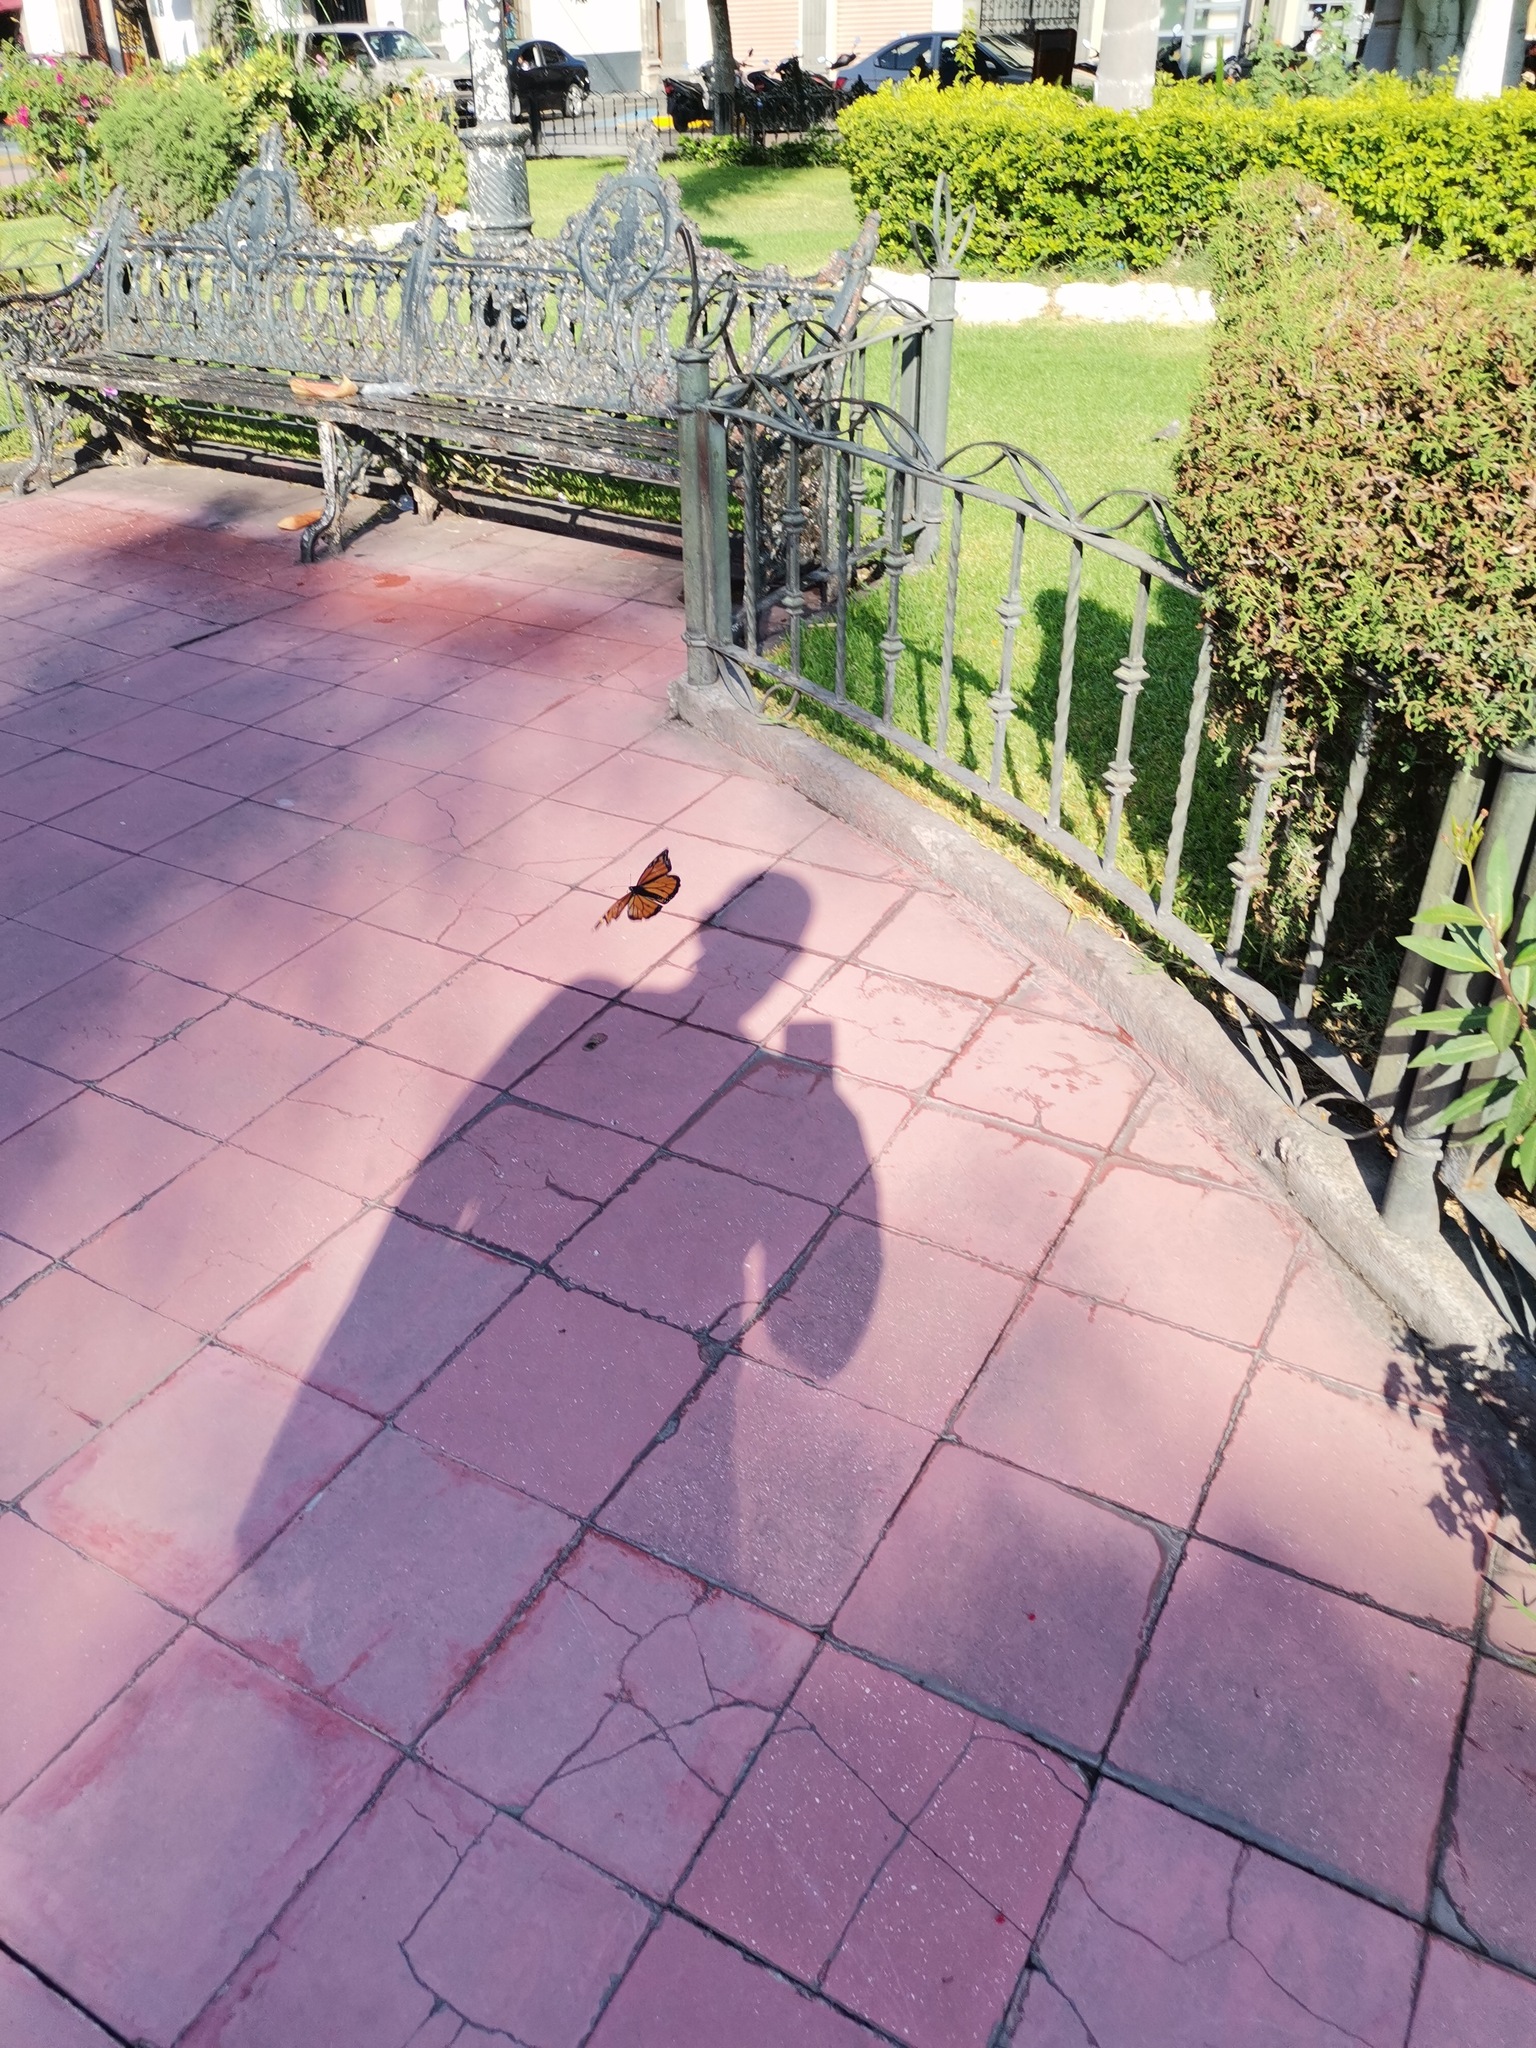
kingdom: Animalia
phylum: Arthropoda
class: Insecta
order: Lepidoptera
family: Nymphalidae
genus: Danaus
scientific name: Danaus plexippus
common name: Monarch
